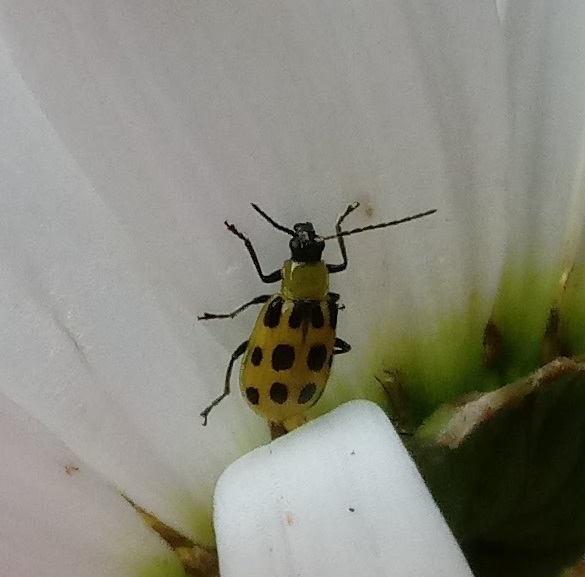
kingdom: Animalia
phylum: Arthropoda
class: Insecta
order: Coleoptera
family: Chrysomelidae
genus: Diabrotica
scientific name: Diabrotica undecimpunctata
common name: Spotted cucumber beetle
